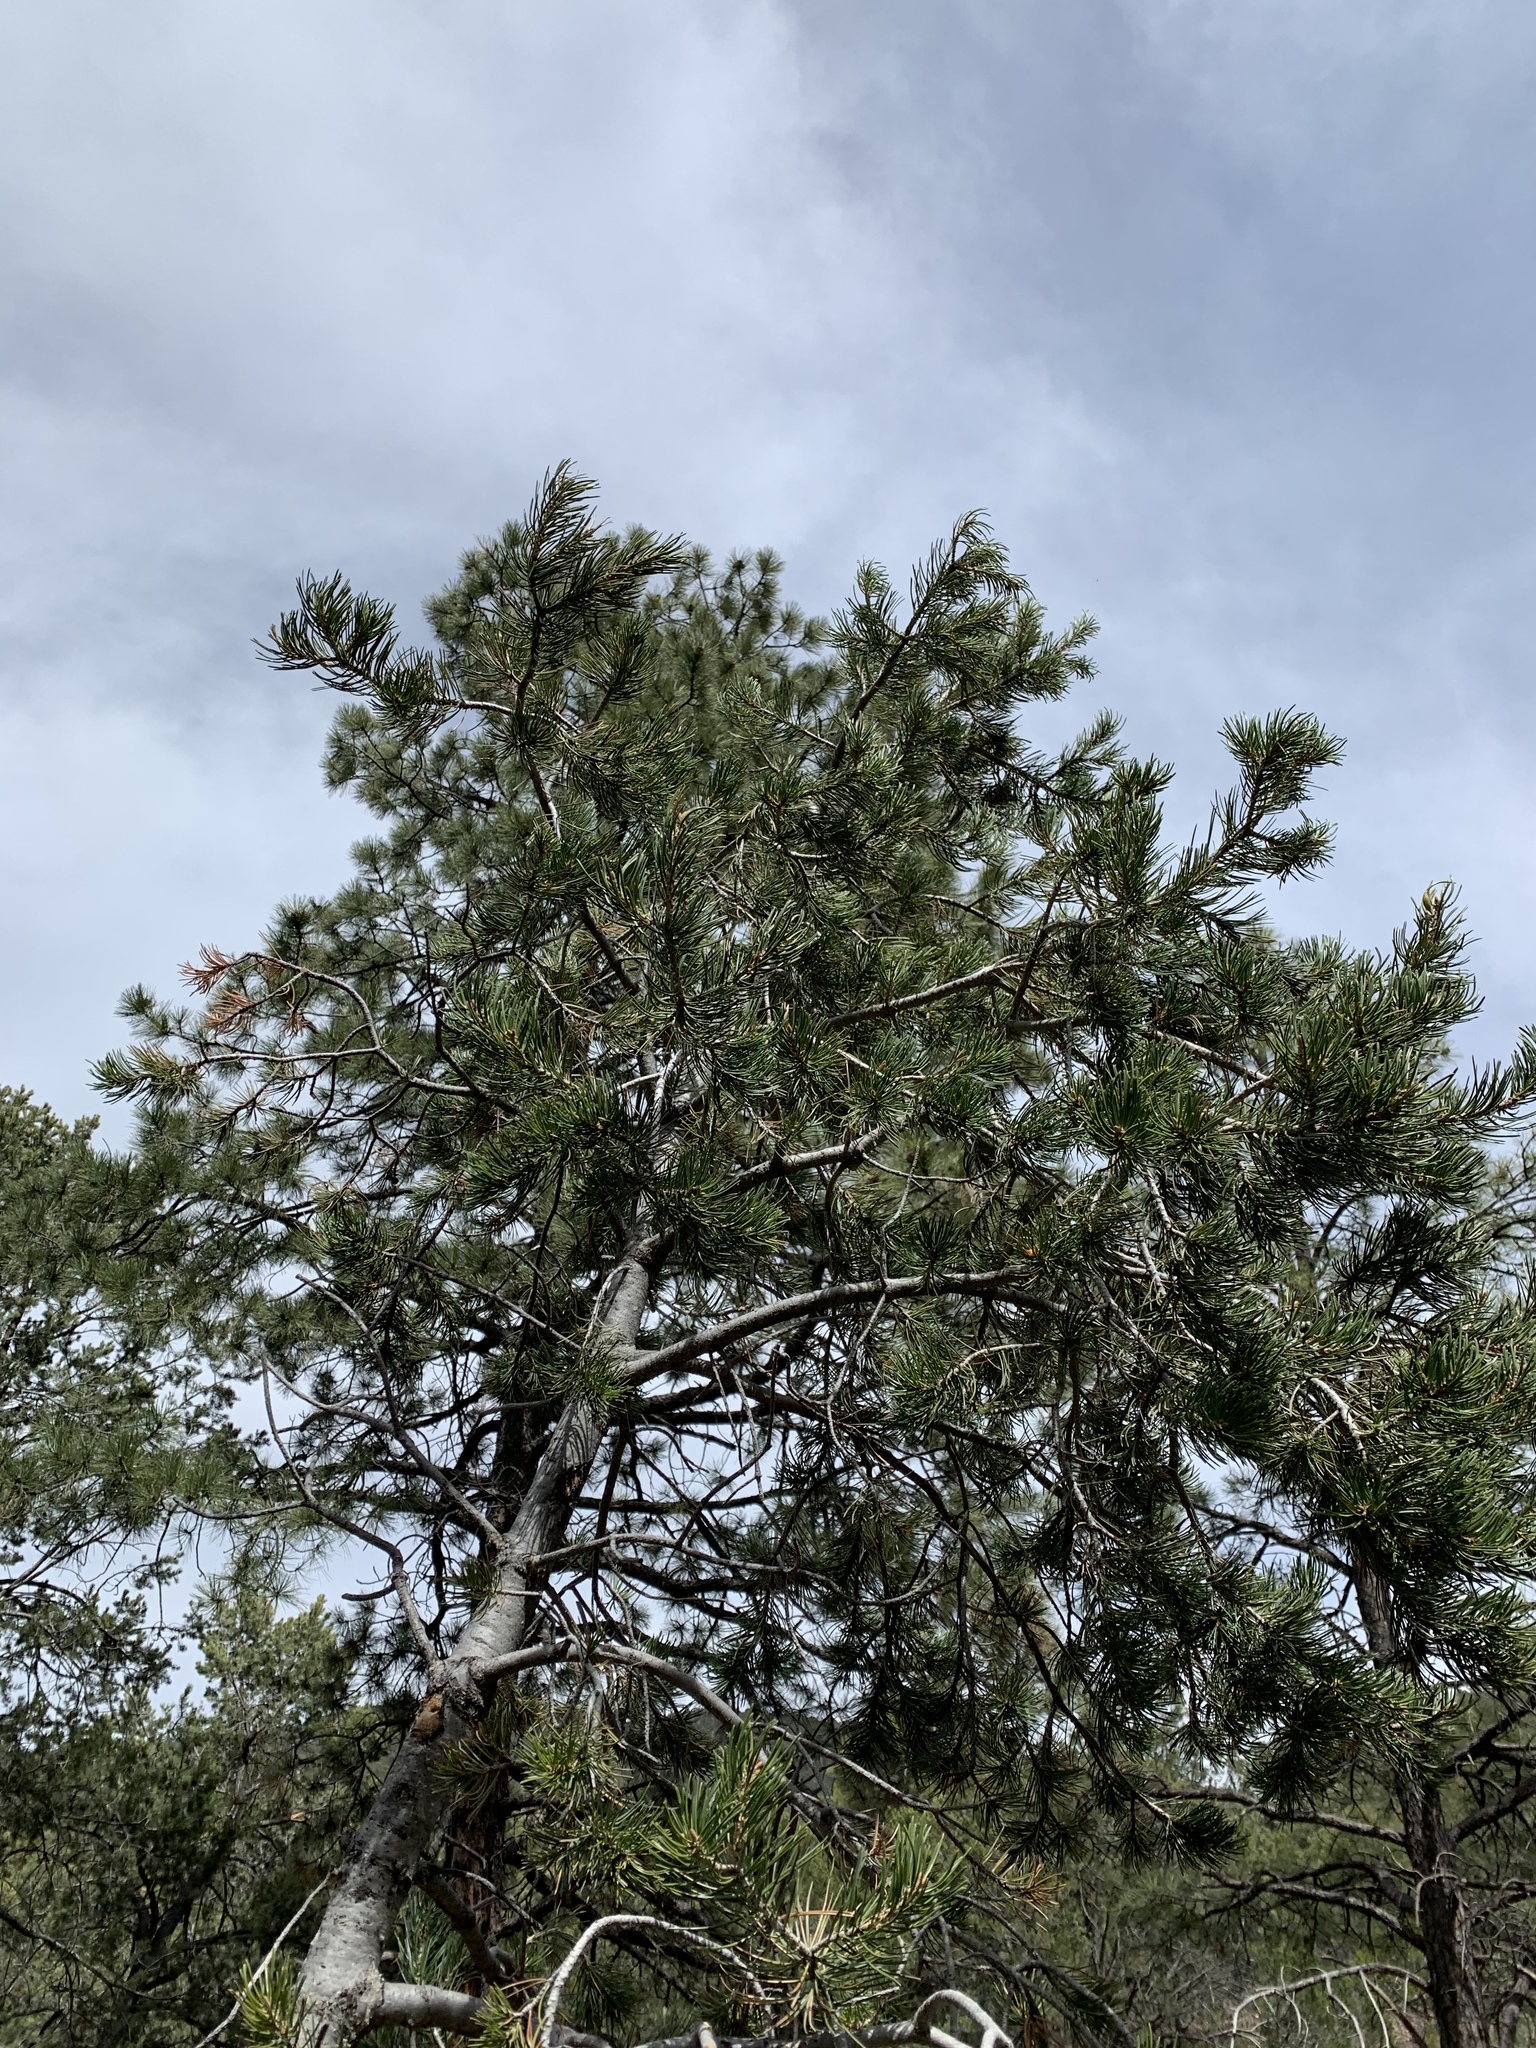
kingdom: Plantae
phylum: Tracheophyta
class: Pinopsida
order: Pinales
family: Pinaceae
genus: Pinus
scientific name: Pinus edulis
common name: Colorado pinyon
